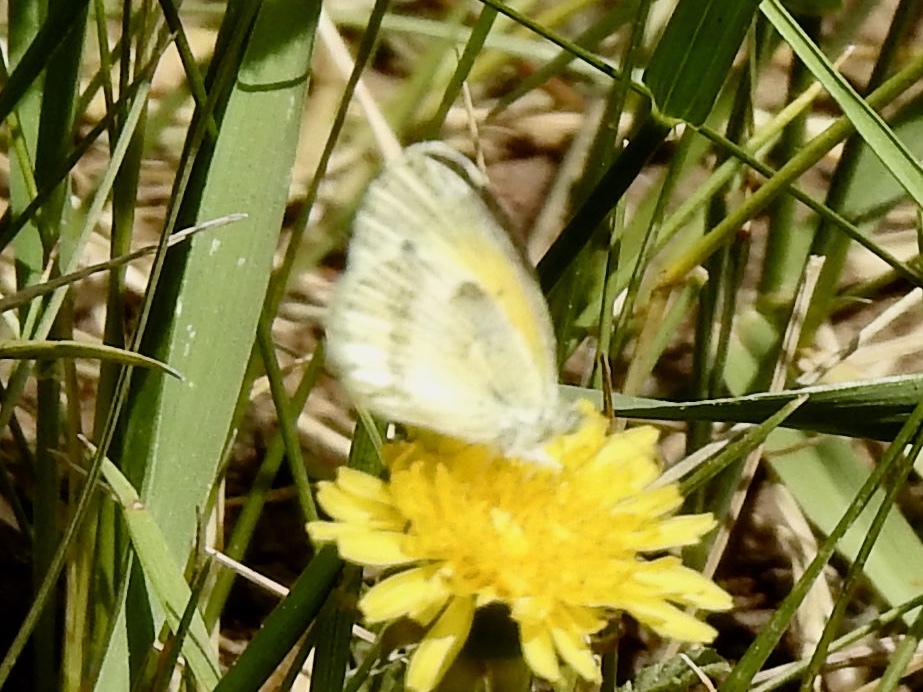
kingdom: Animalia
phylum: Arthropoda
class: Insecta
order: Lepidoptera
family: Pieridae
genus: Nathalis
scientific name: Nathalis iole
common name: Dainty sulphur
